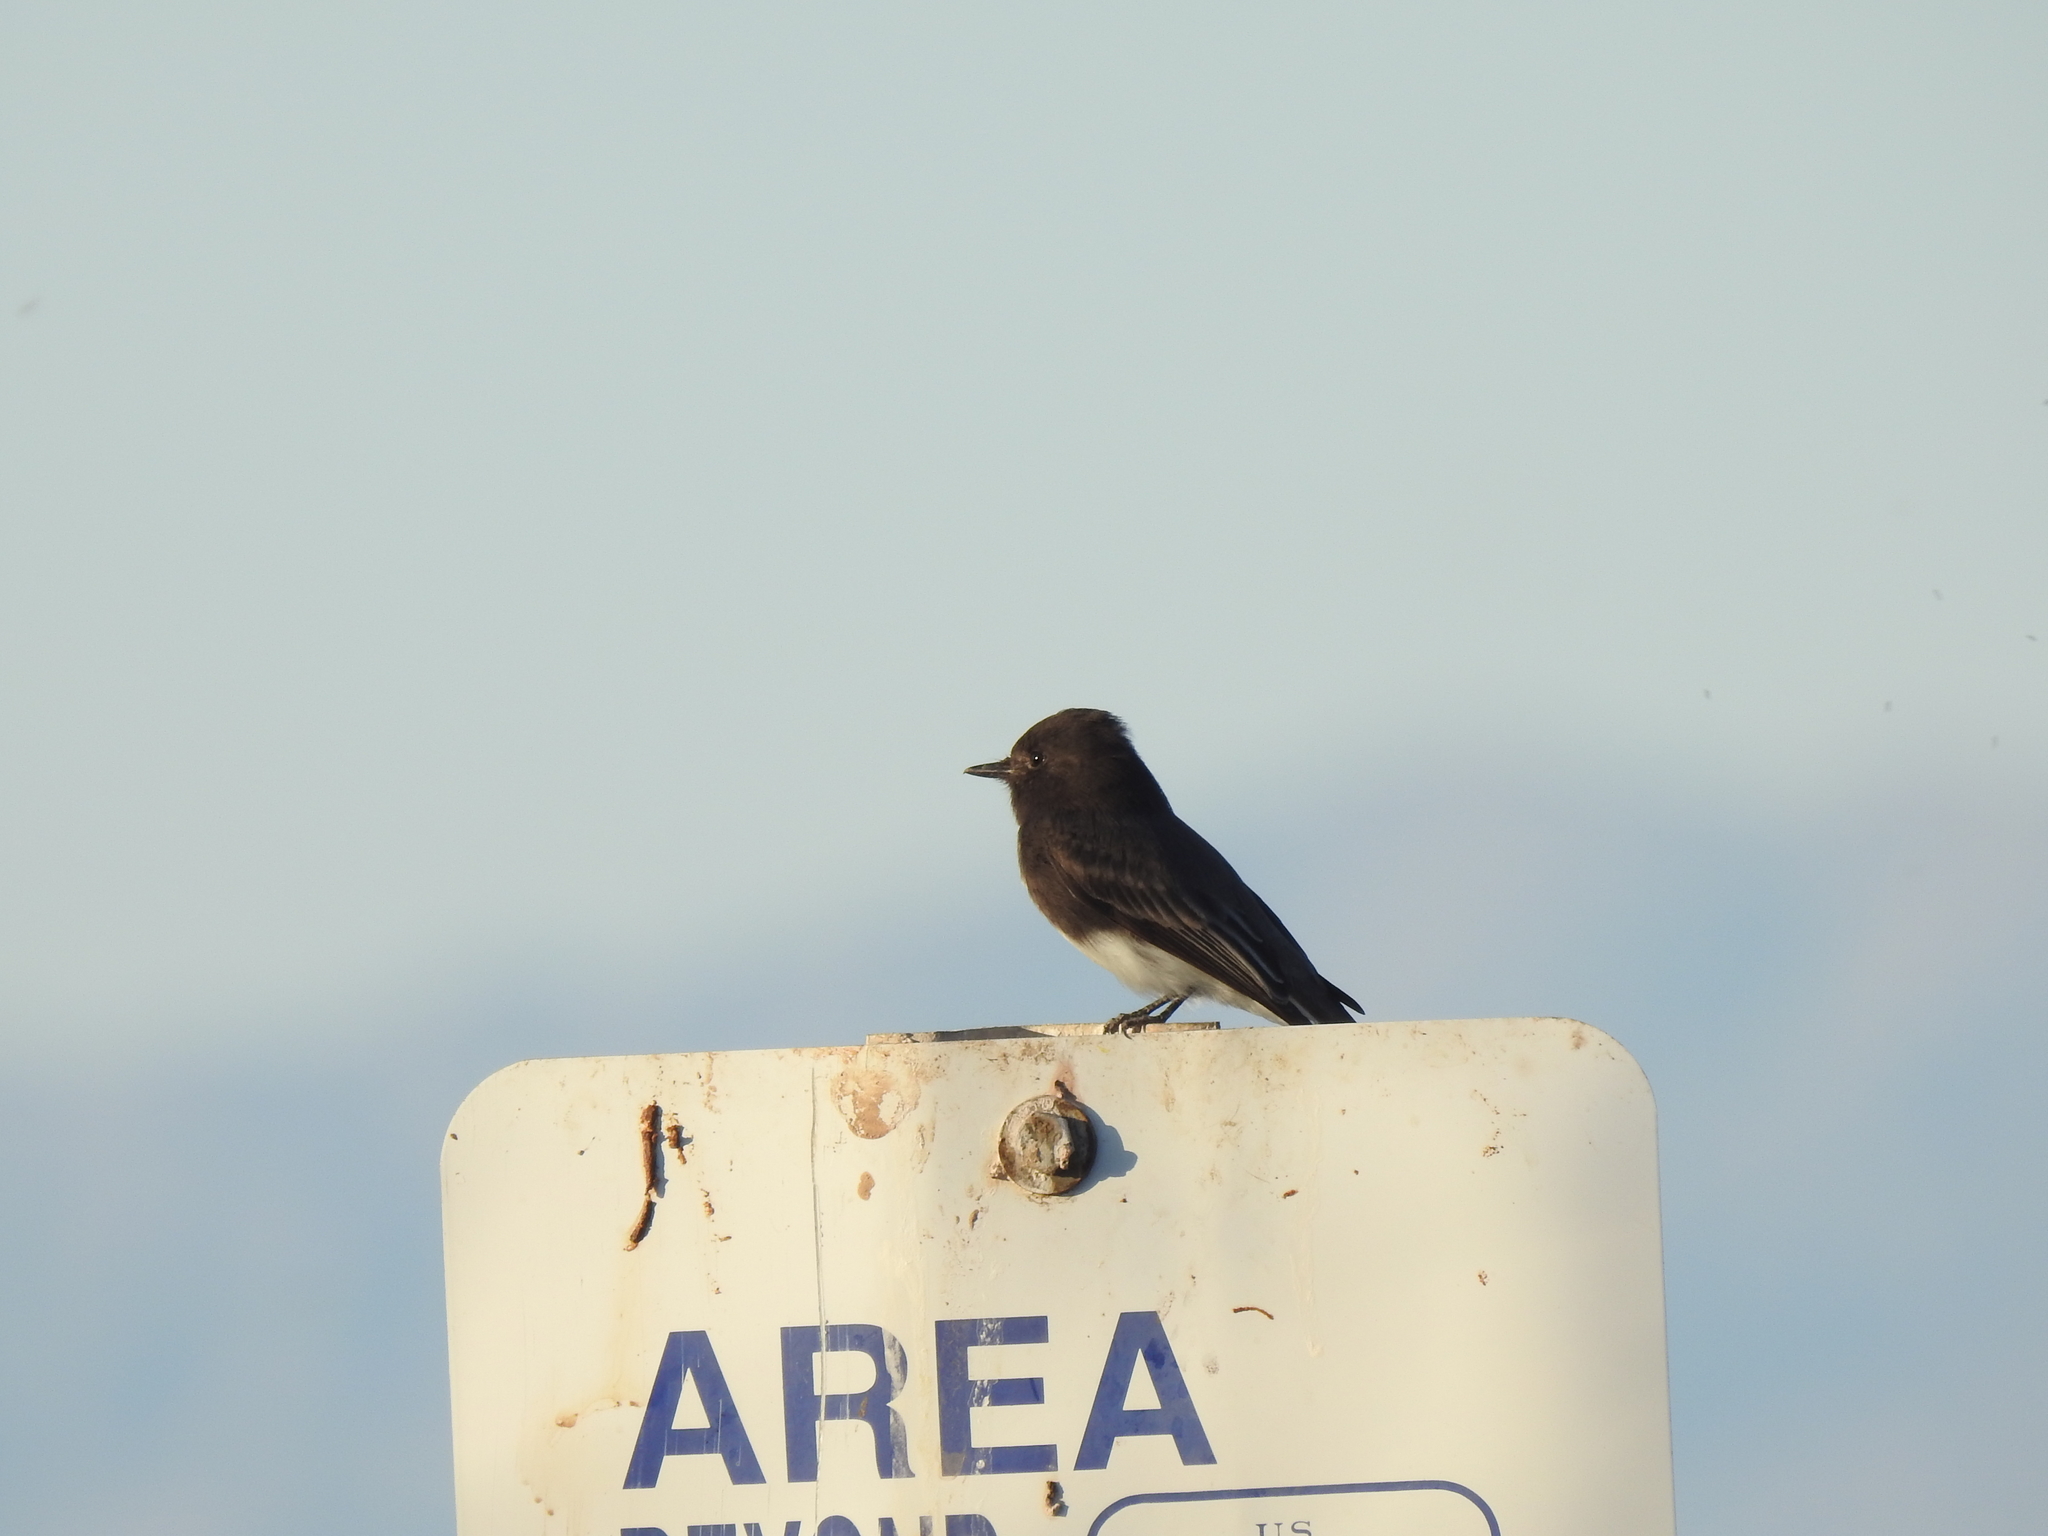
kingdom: Animalia
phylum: Chordata
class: Aves
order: Passeriformes
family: Tyrannidae
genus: Sayornis
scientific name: Sayornis nigricans
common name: Black phoebe
